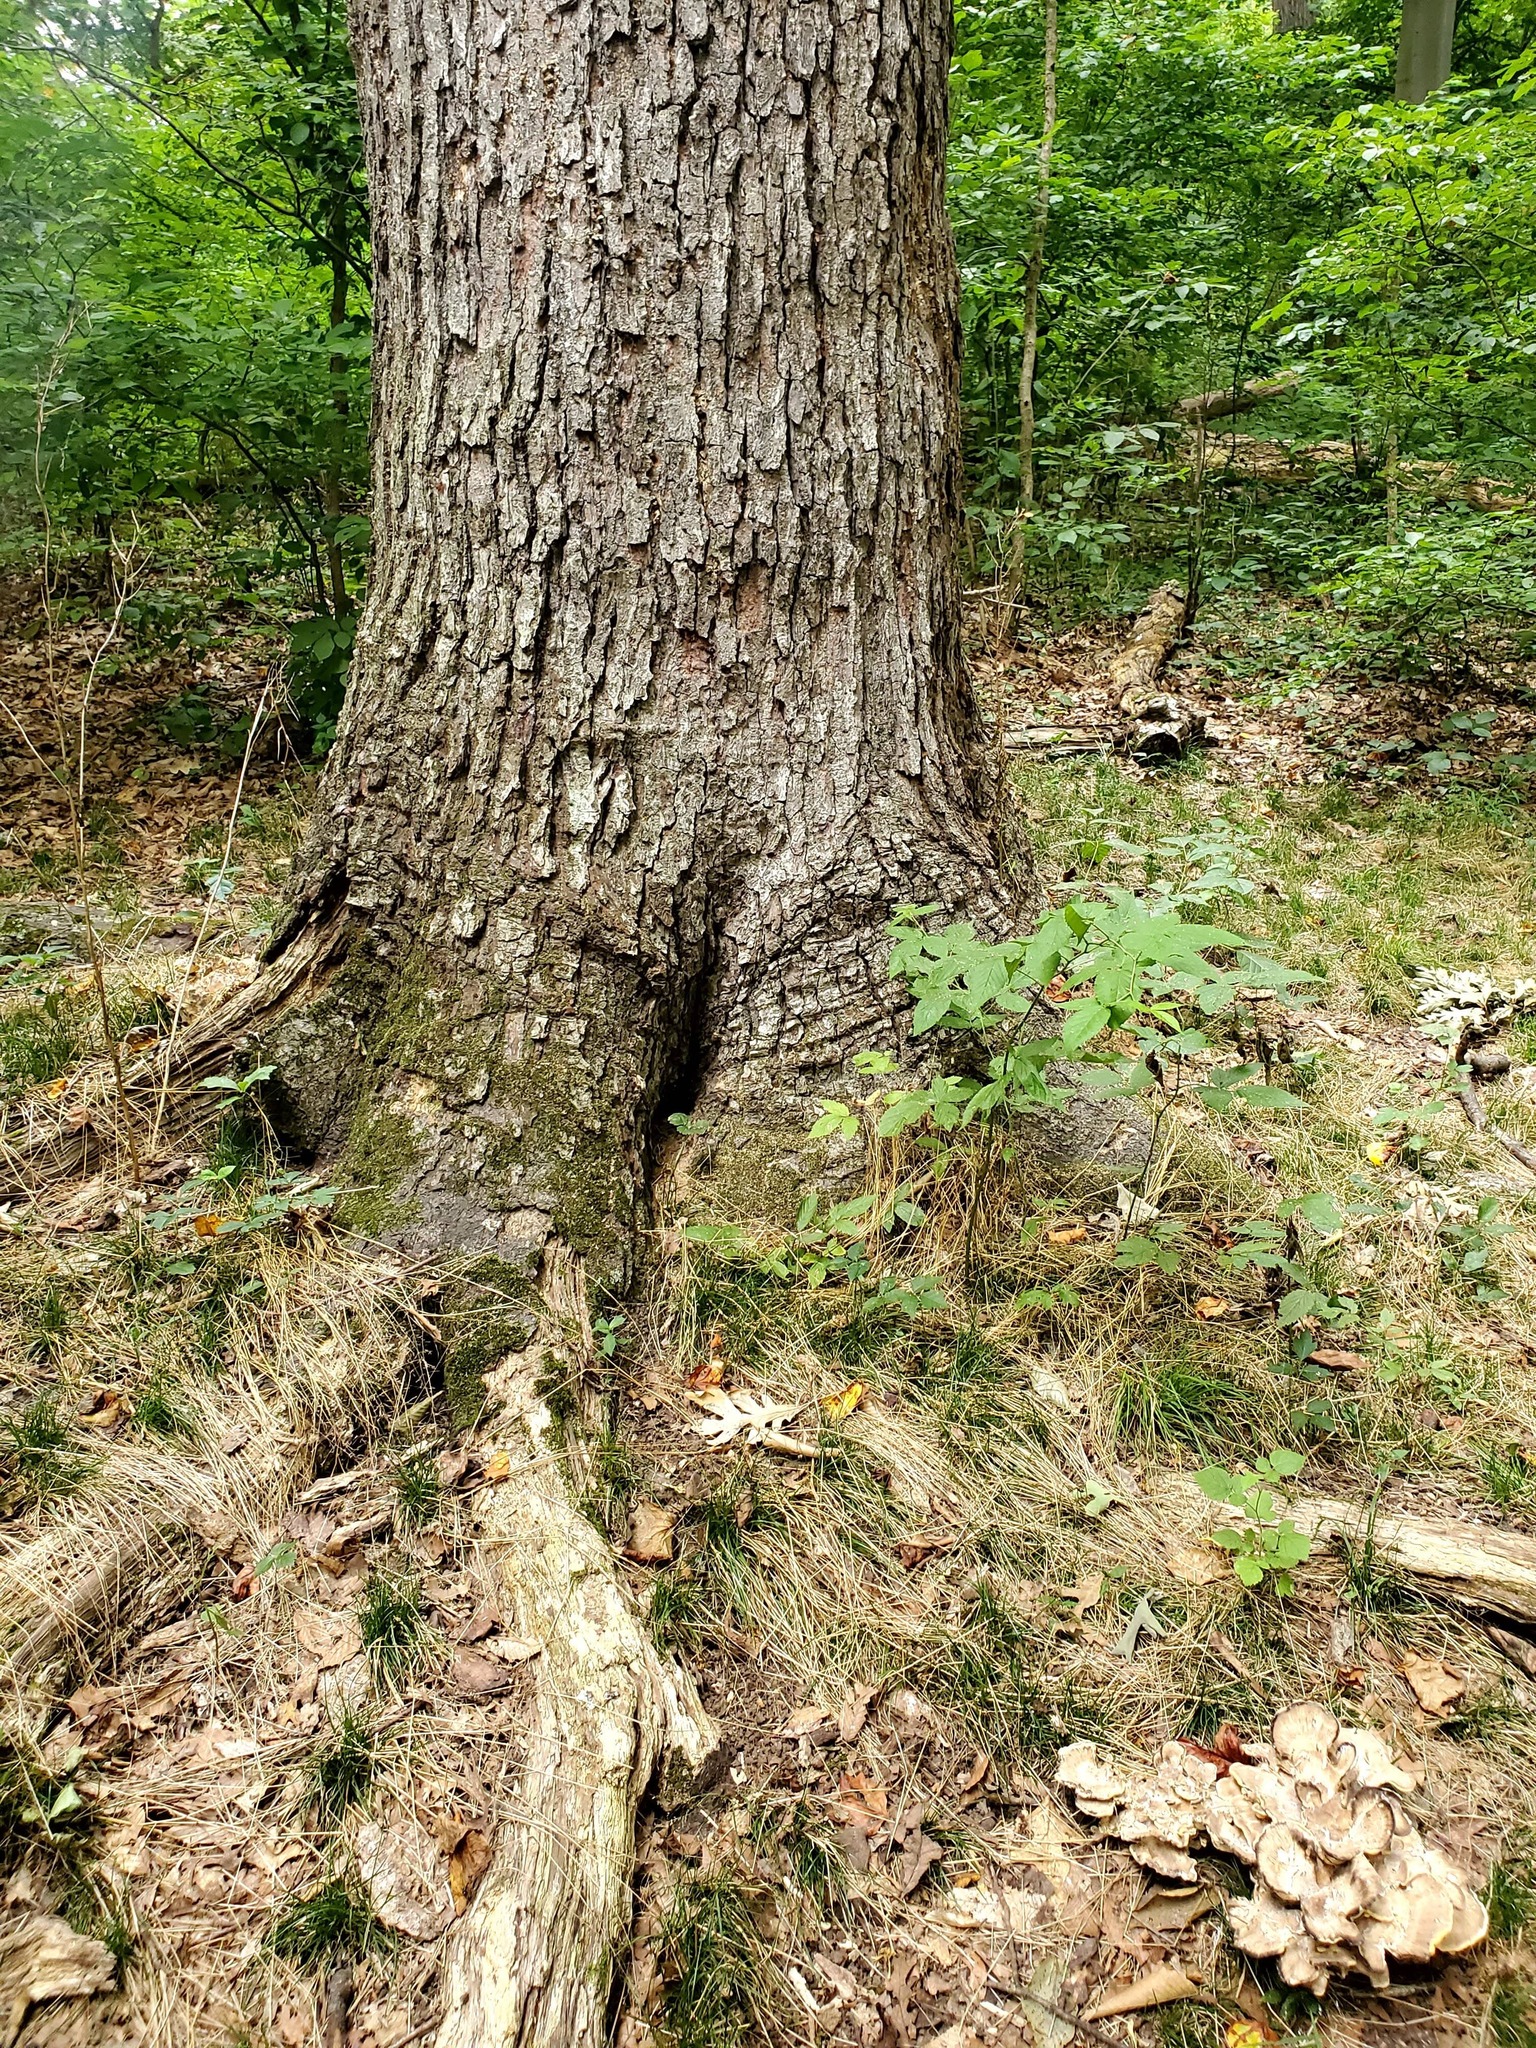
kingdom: Fungi
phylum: Basidiomycota
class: Agaricomycetes
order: Polyporales
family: Meripilaceae
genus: Meripilus
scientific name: Meripilus sumstinei
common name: Black-staining polypore
